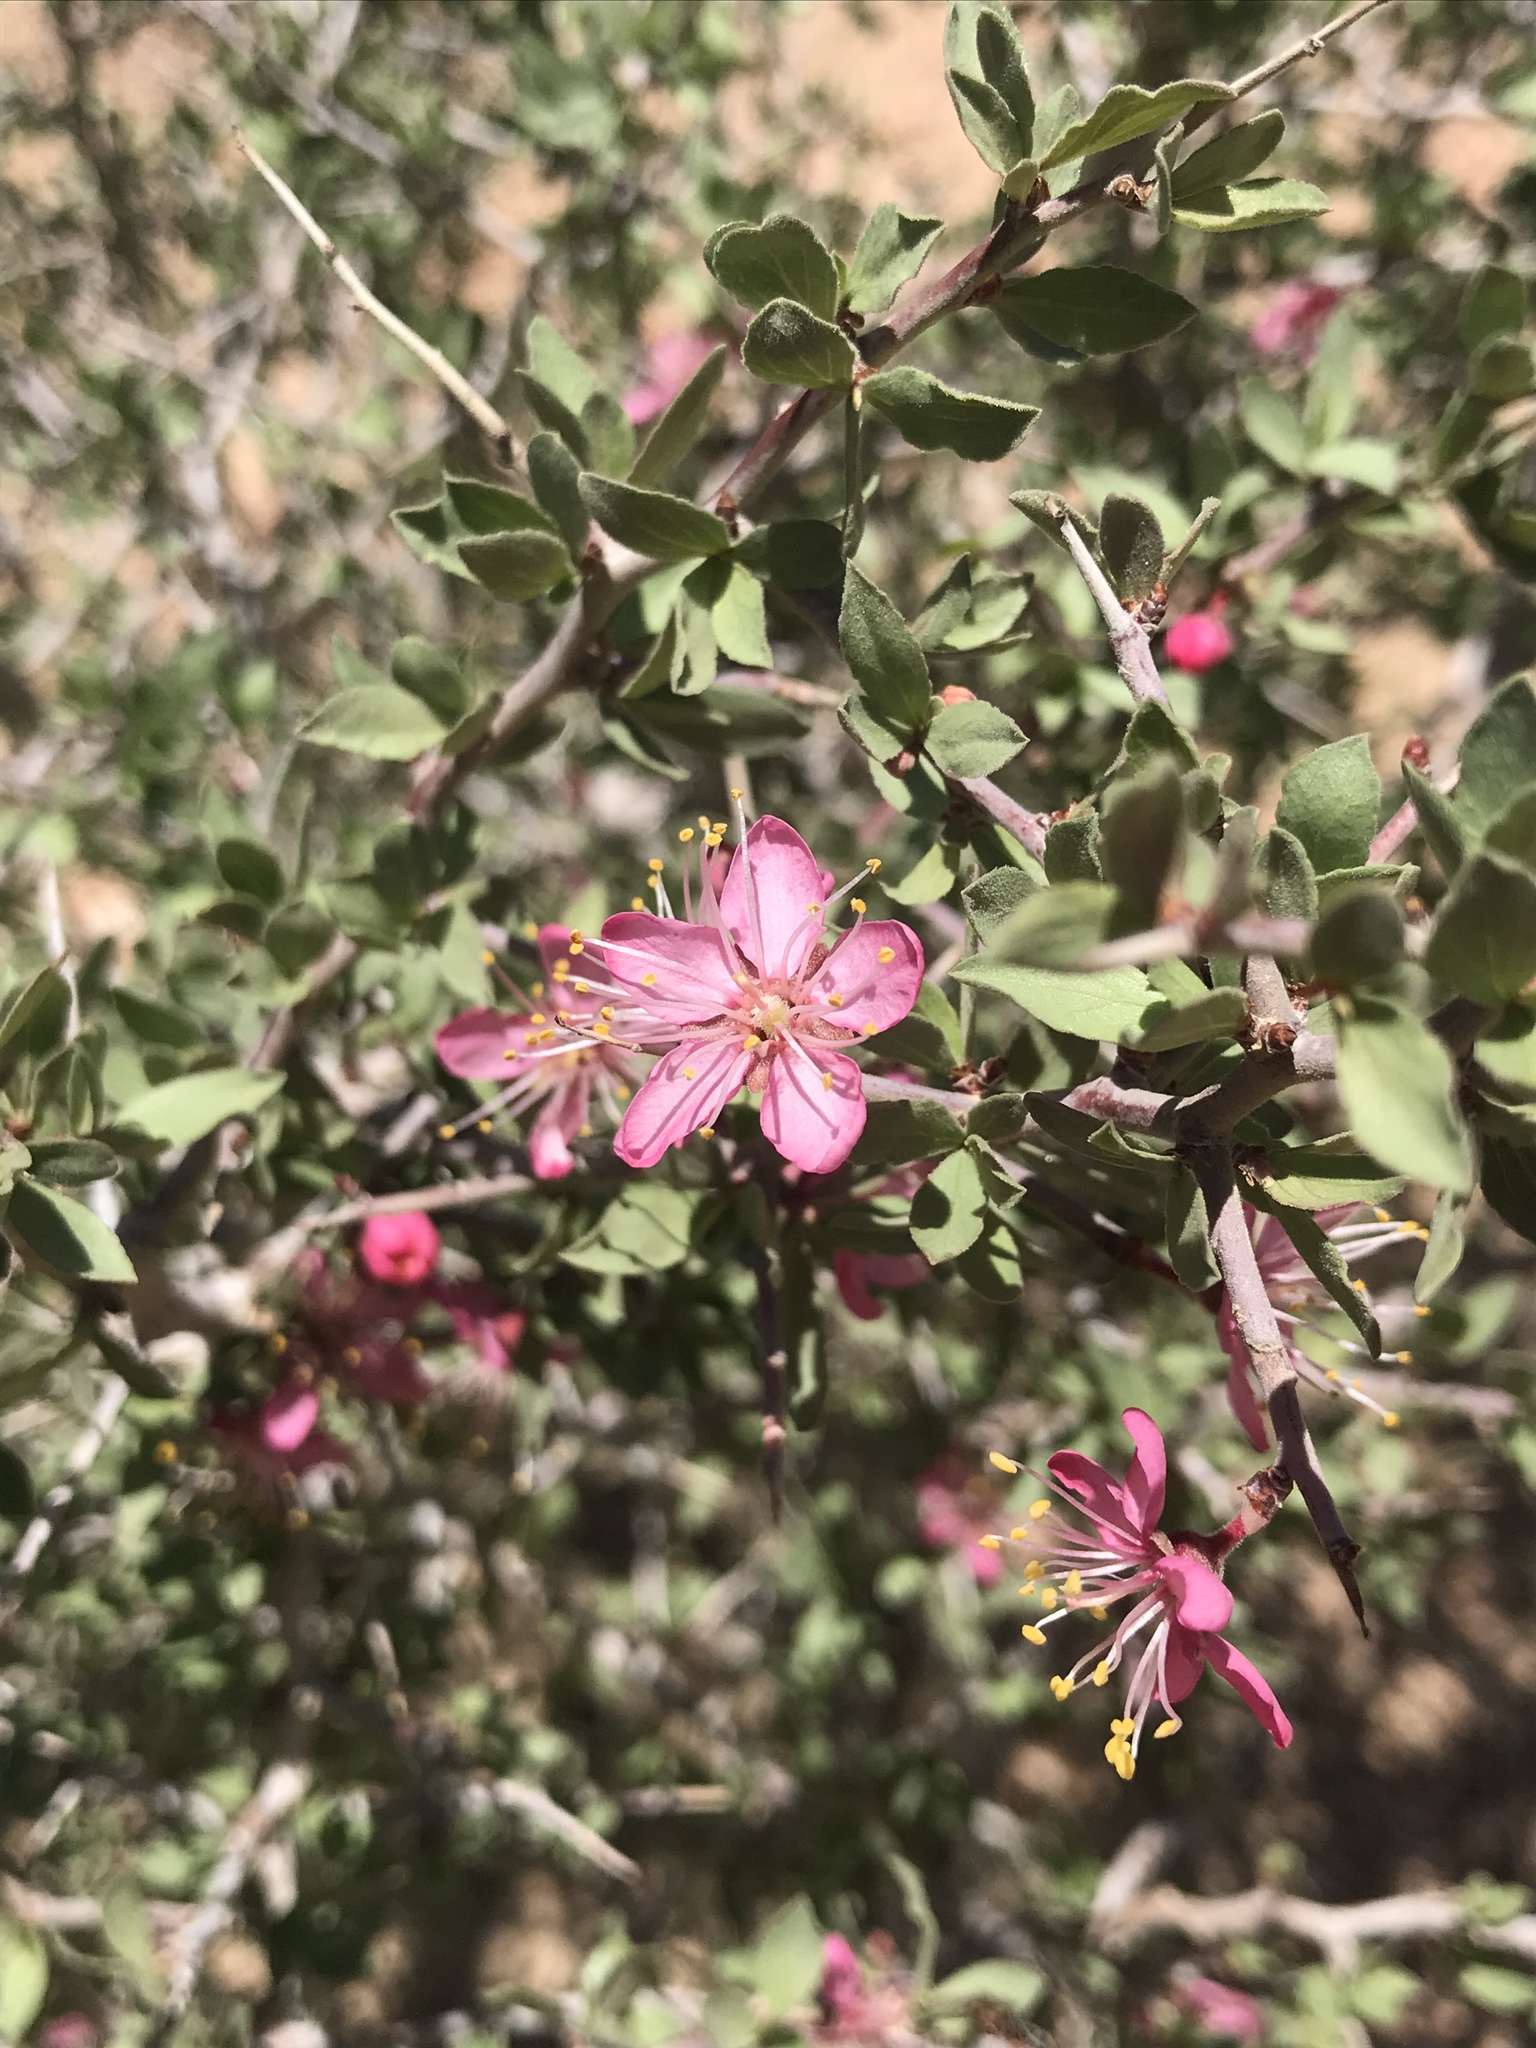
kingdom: Plantae
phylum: Tracheophyta
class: Magnoliopsida
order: Rosales
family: Rosaceae
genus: Prunus
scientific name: Prunus andersonii
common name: Desert peach
